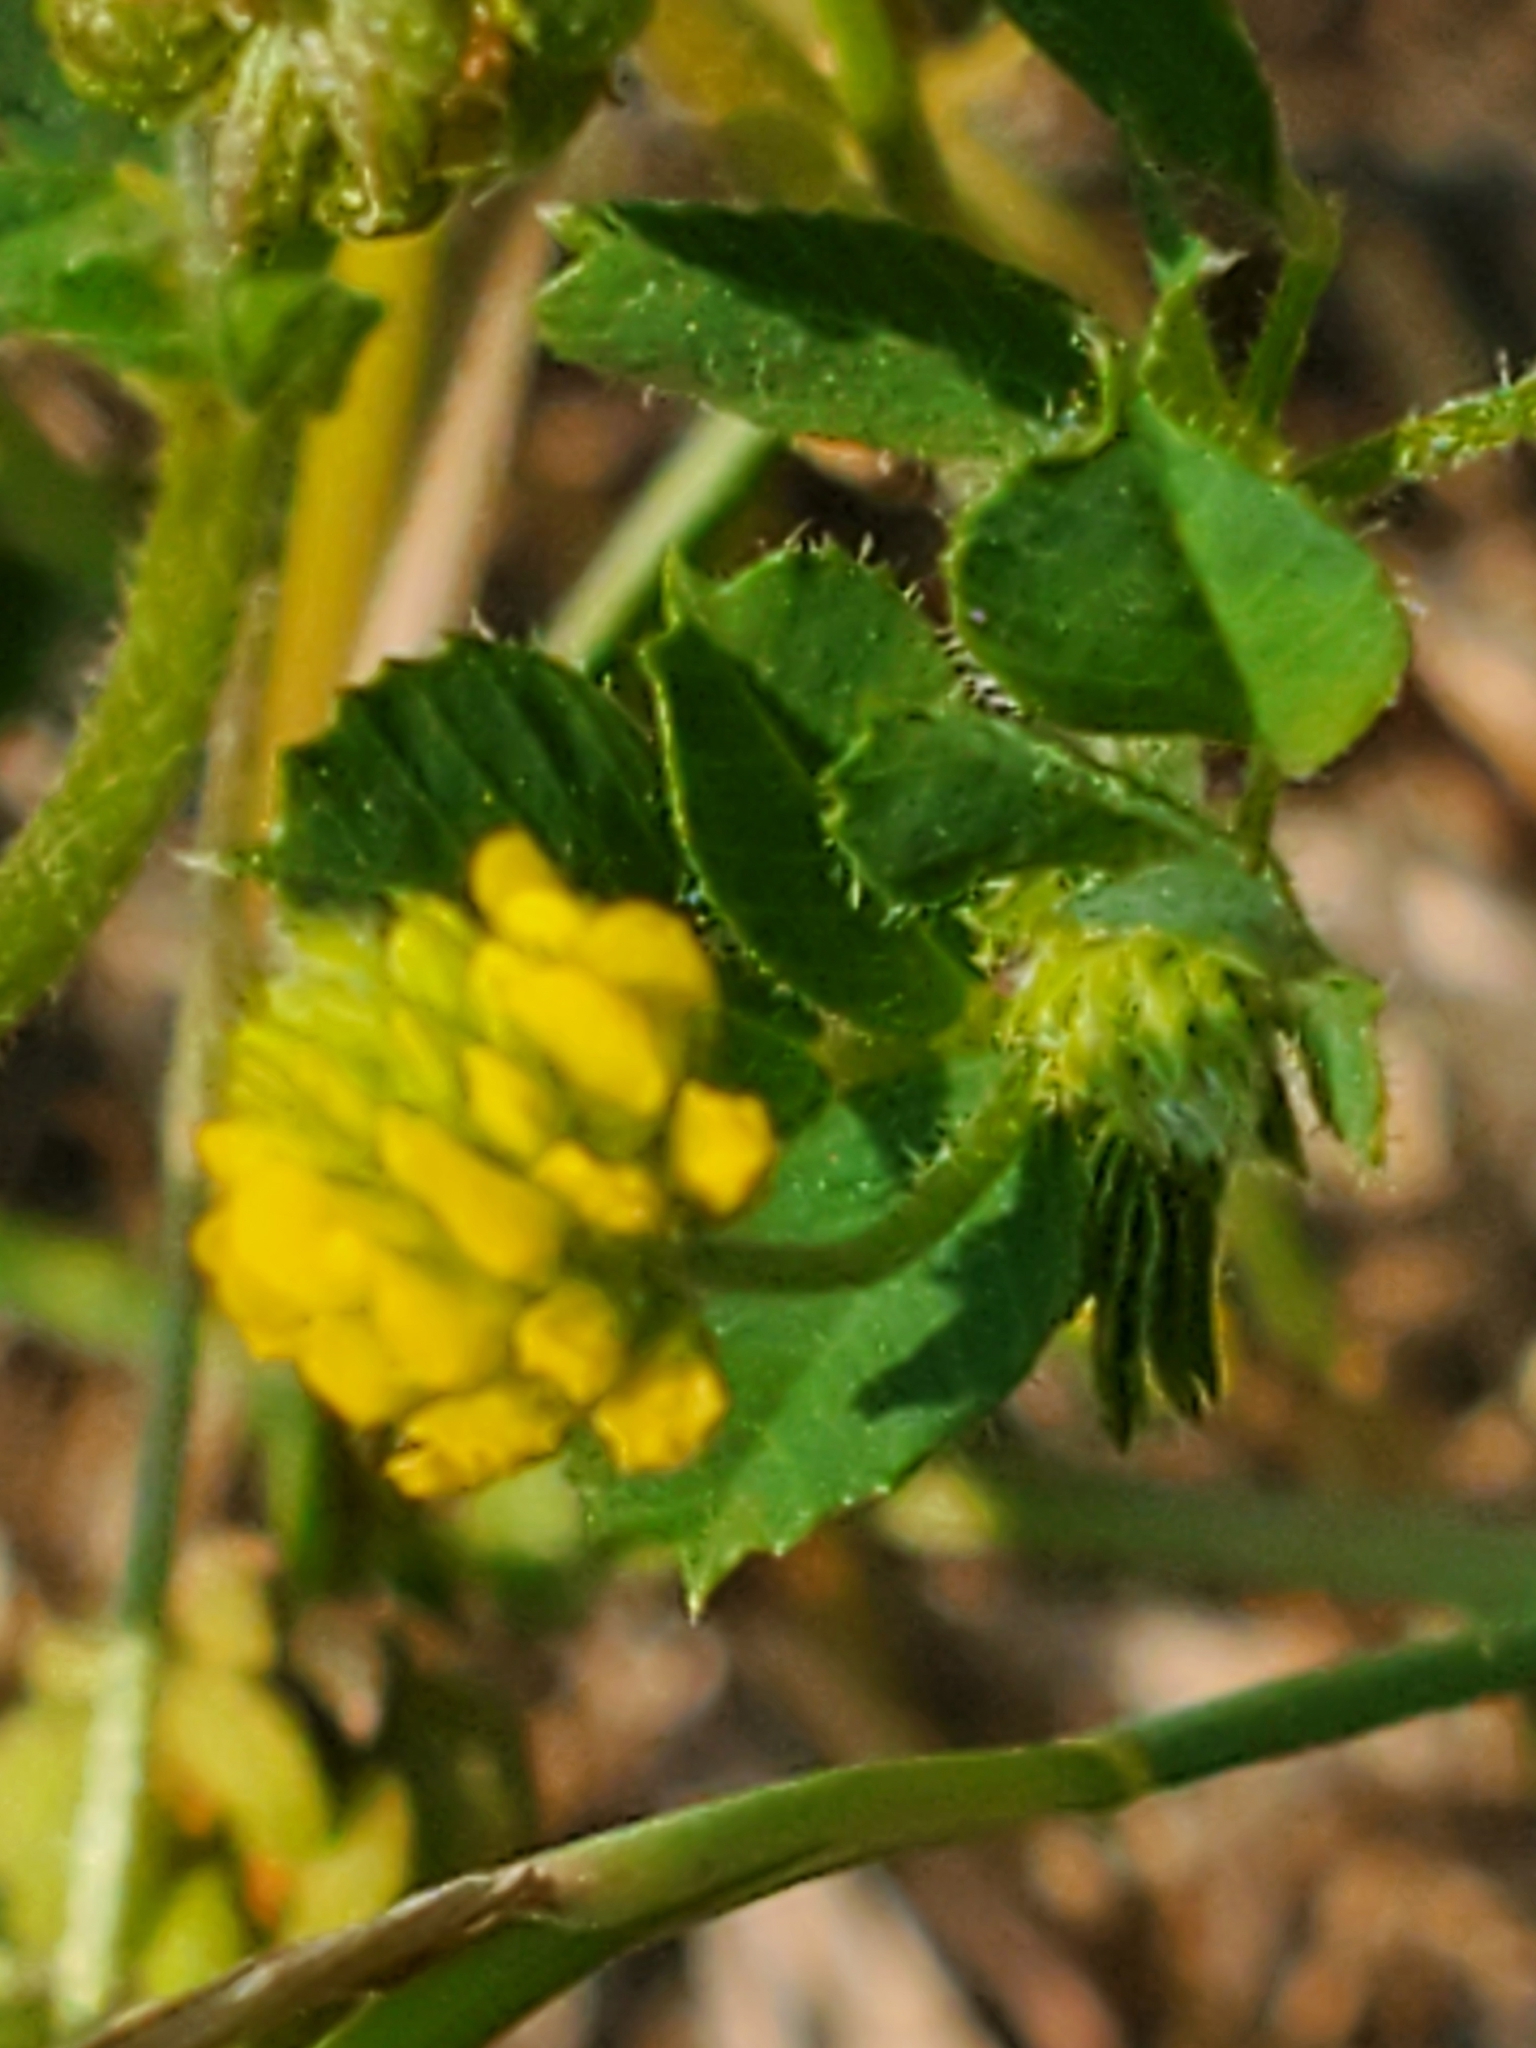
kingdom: Plantae
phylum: Tracheophyta
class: Magnoliopsida
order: Fabales
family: Fabaceae
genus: Medicago
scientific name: Medicago lupulina
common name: Black medick
